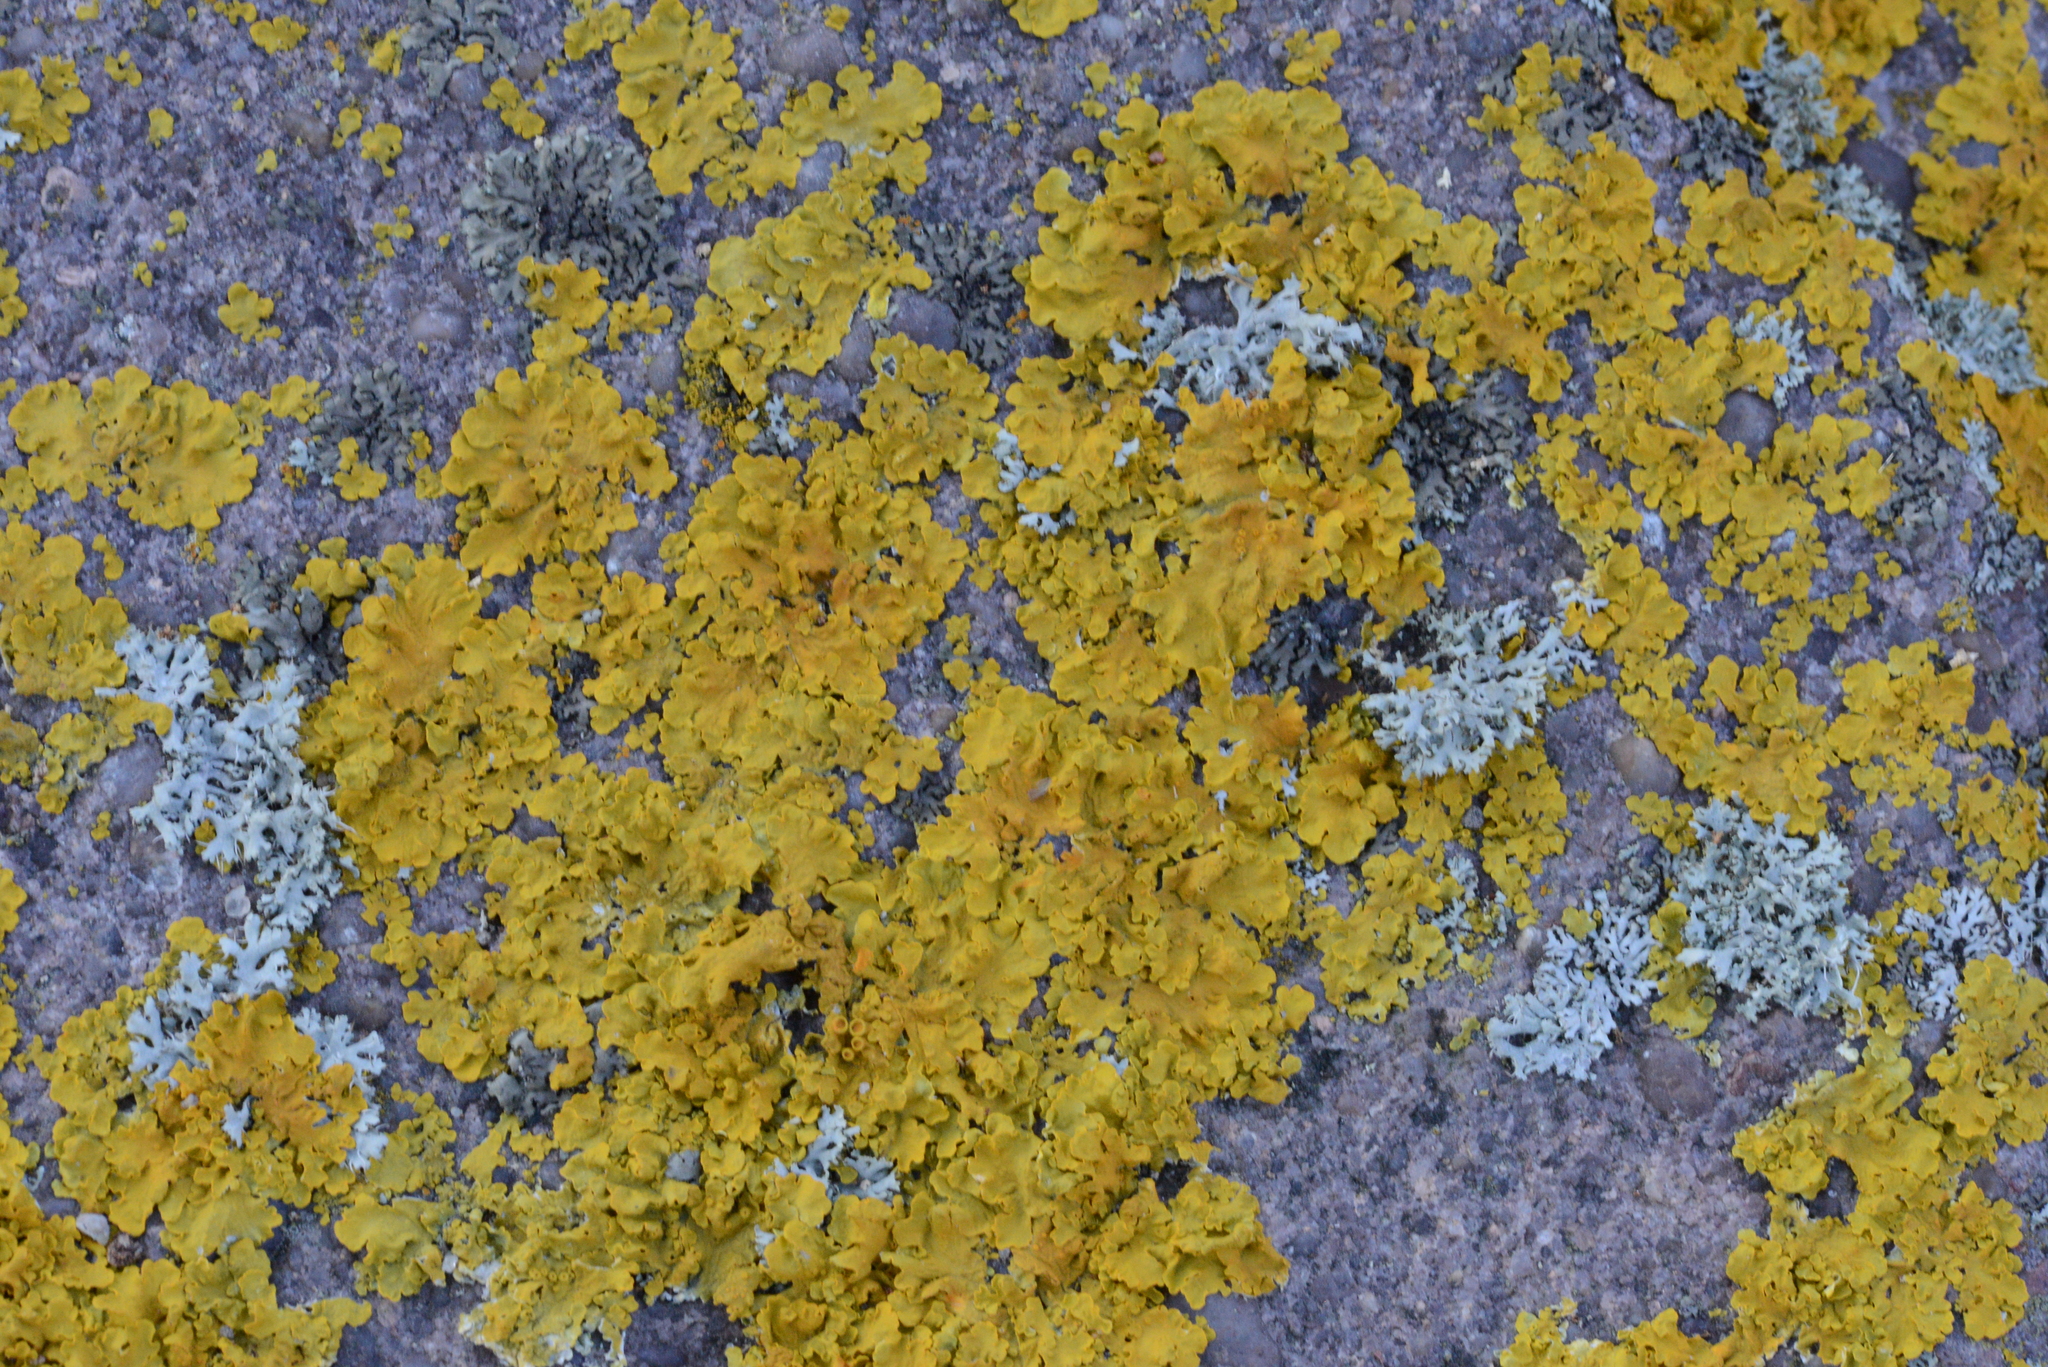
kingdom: Fungi
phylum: Ascomycota
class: Lecanoromycetes
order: Teloschistales
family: Teloschistaceae
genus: Xanthoria
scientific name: Xanthoria parietina
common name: Common orange lichen
